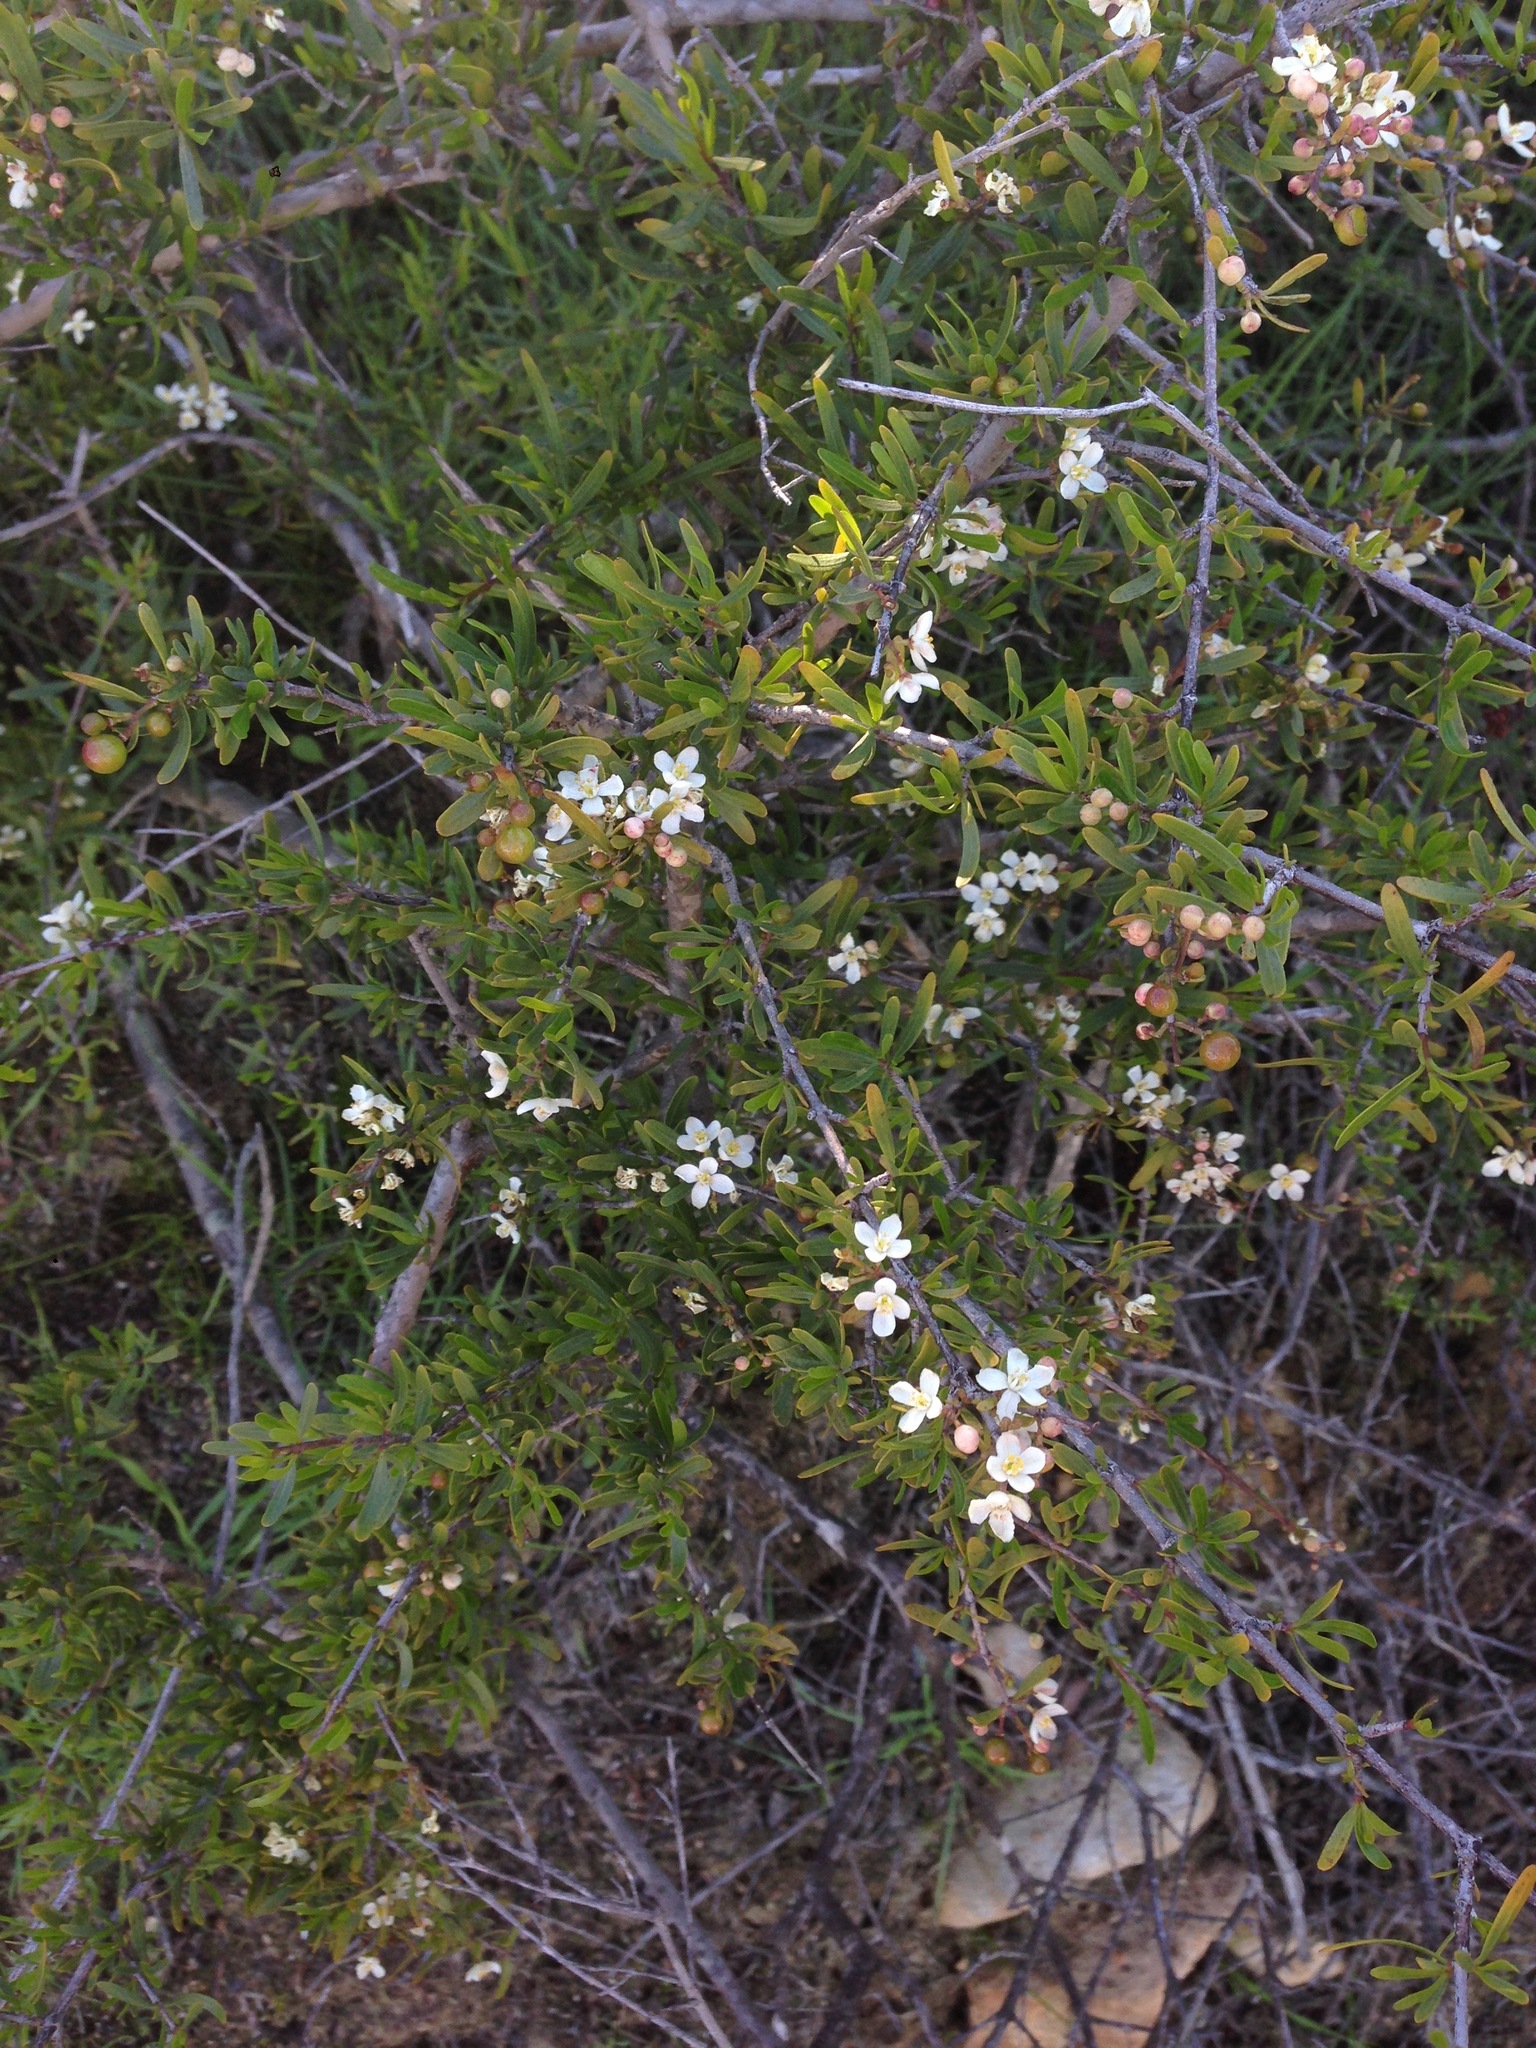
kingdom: Plantae
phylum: Tracheophyta
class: Magnoliopsida
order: Sapindales
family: Rutaceae
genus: Cneoridium
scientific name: Cneoridium dumosum
